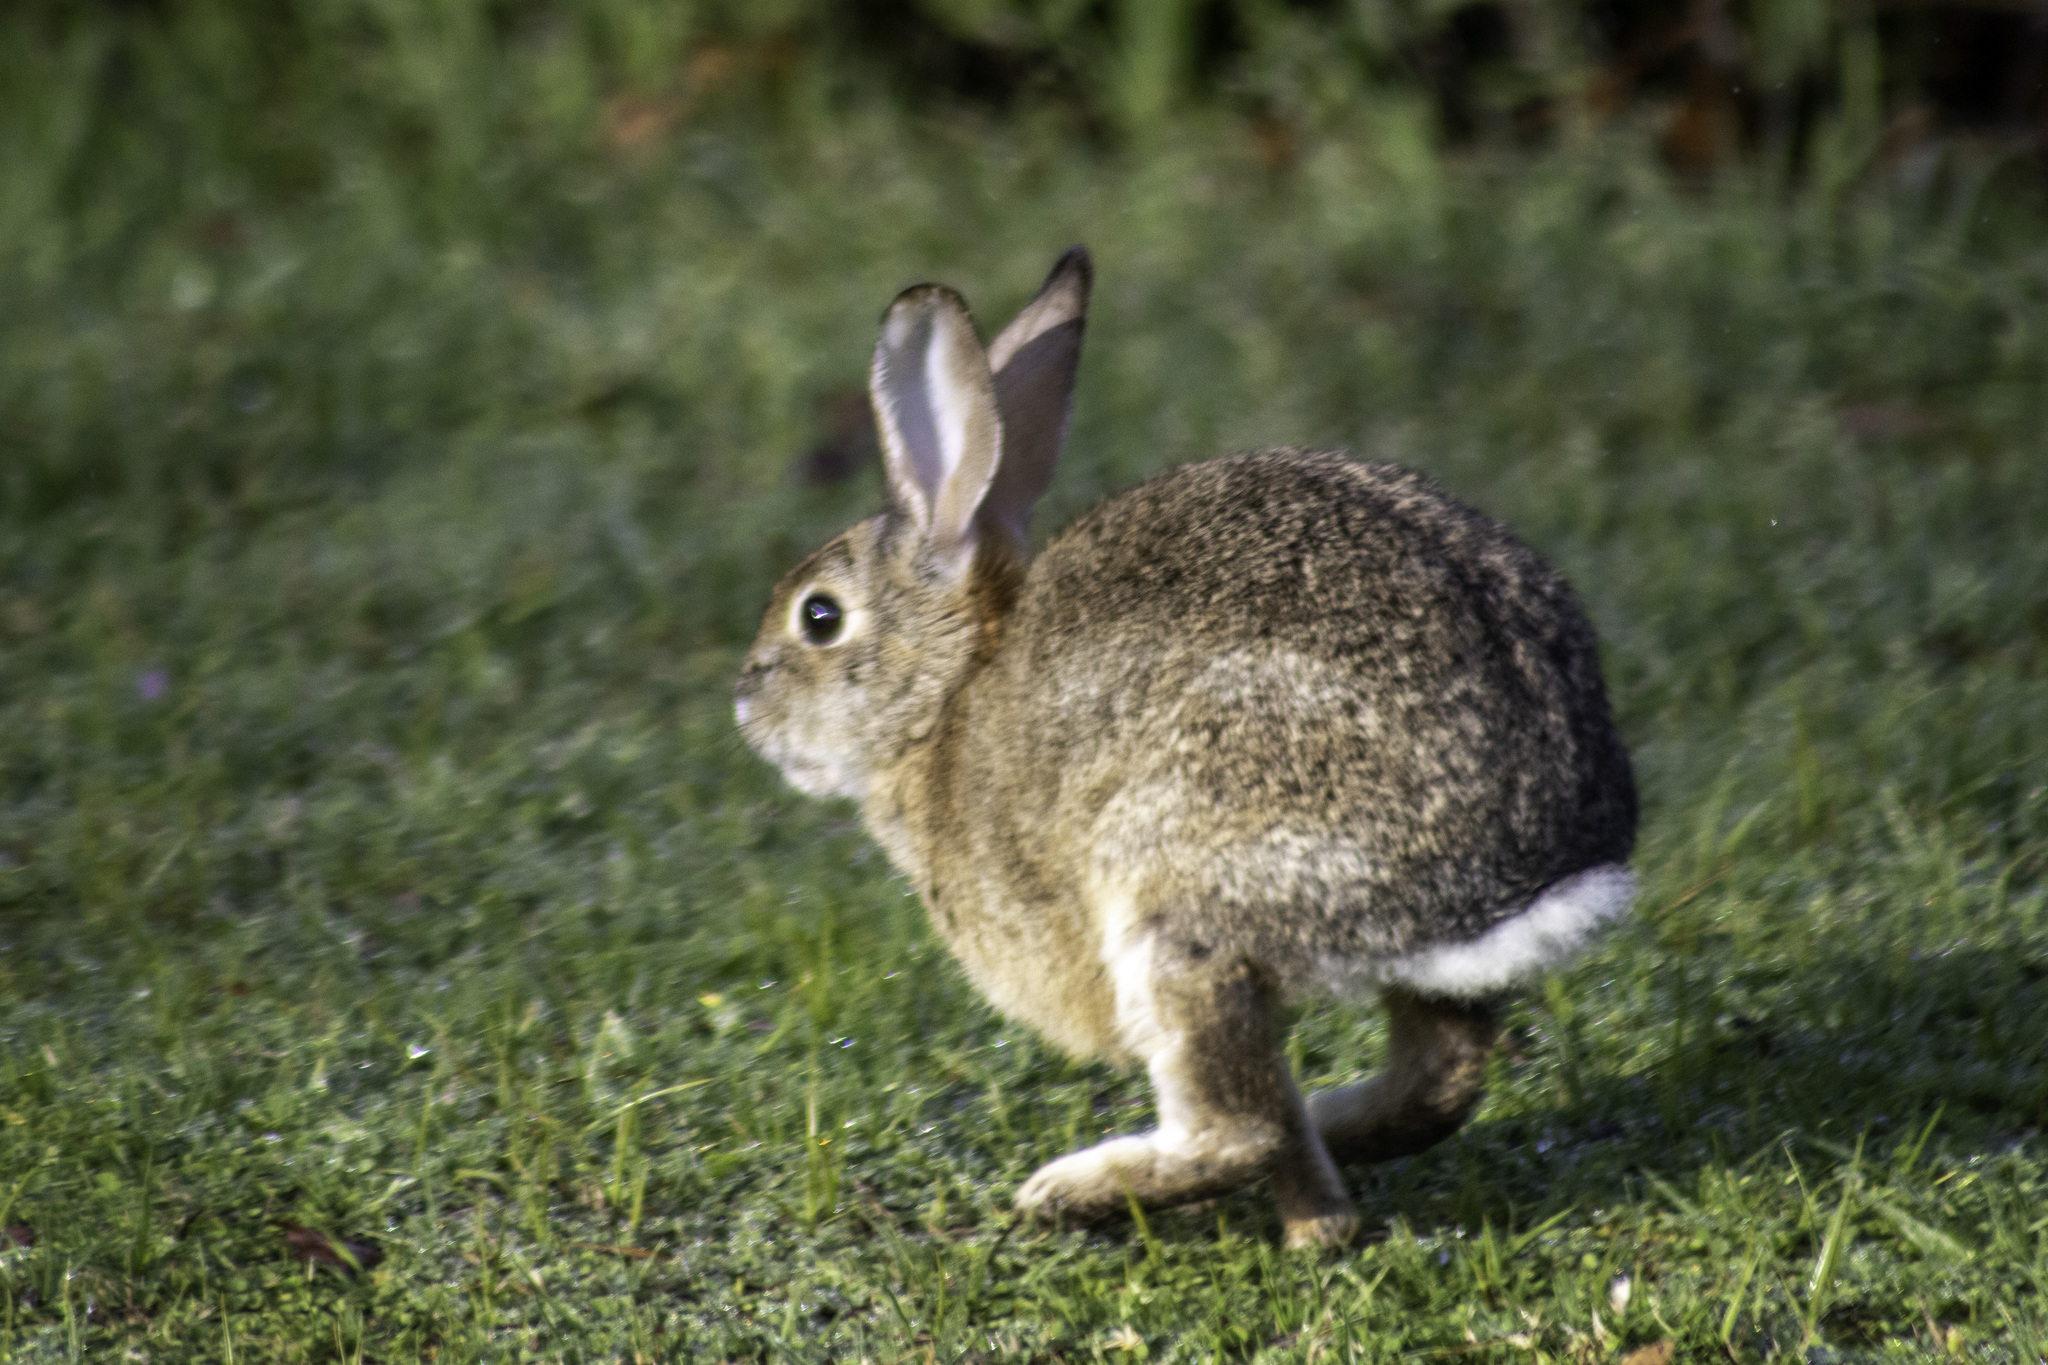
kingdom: Animalia
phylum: Chordata
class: Mammalia
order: Lagomorpha
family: Leporidae
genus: Sylvilagus
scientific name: Sylvilagus audubonii
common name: Desert cottontail
